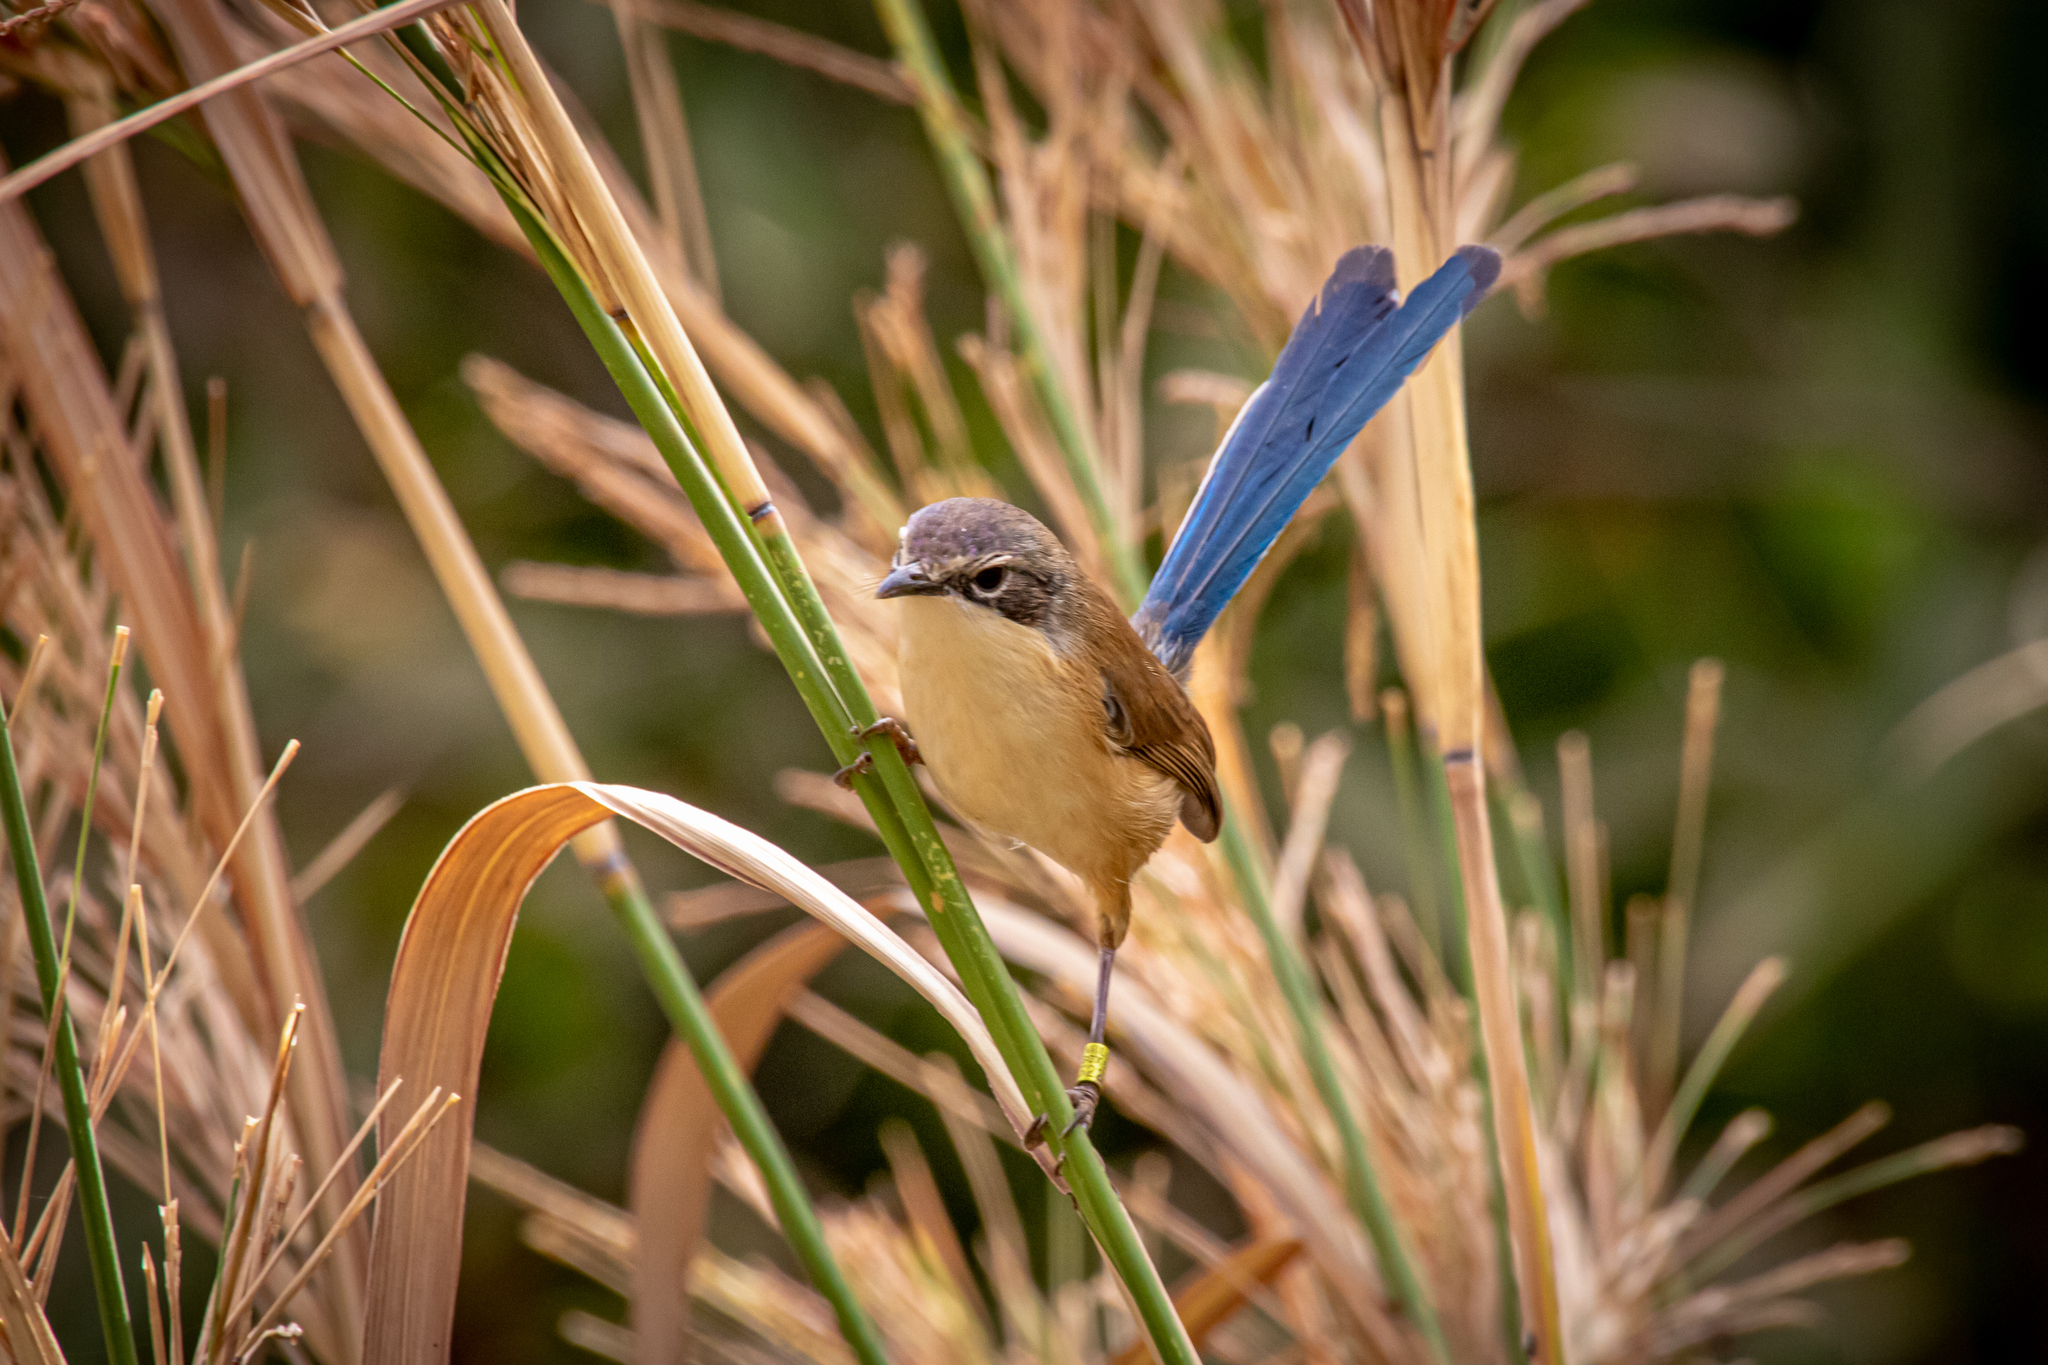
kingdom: Animalia
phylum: Chordata
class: Aves
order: Passeriformes
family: Maluridae
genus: Malurus
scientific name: Malurus coronatus
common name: Purple-crowned fairywren
